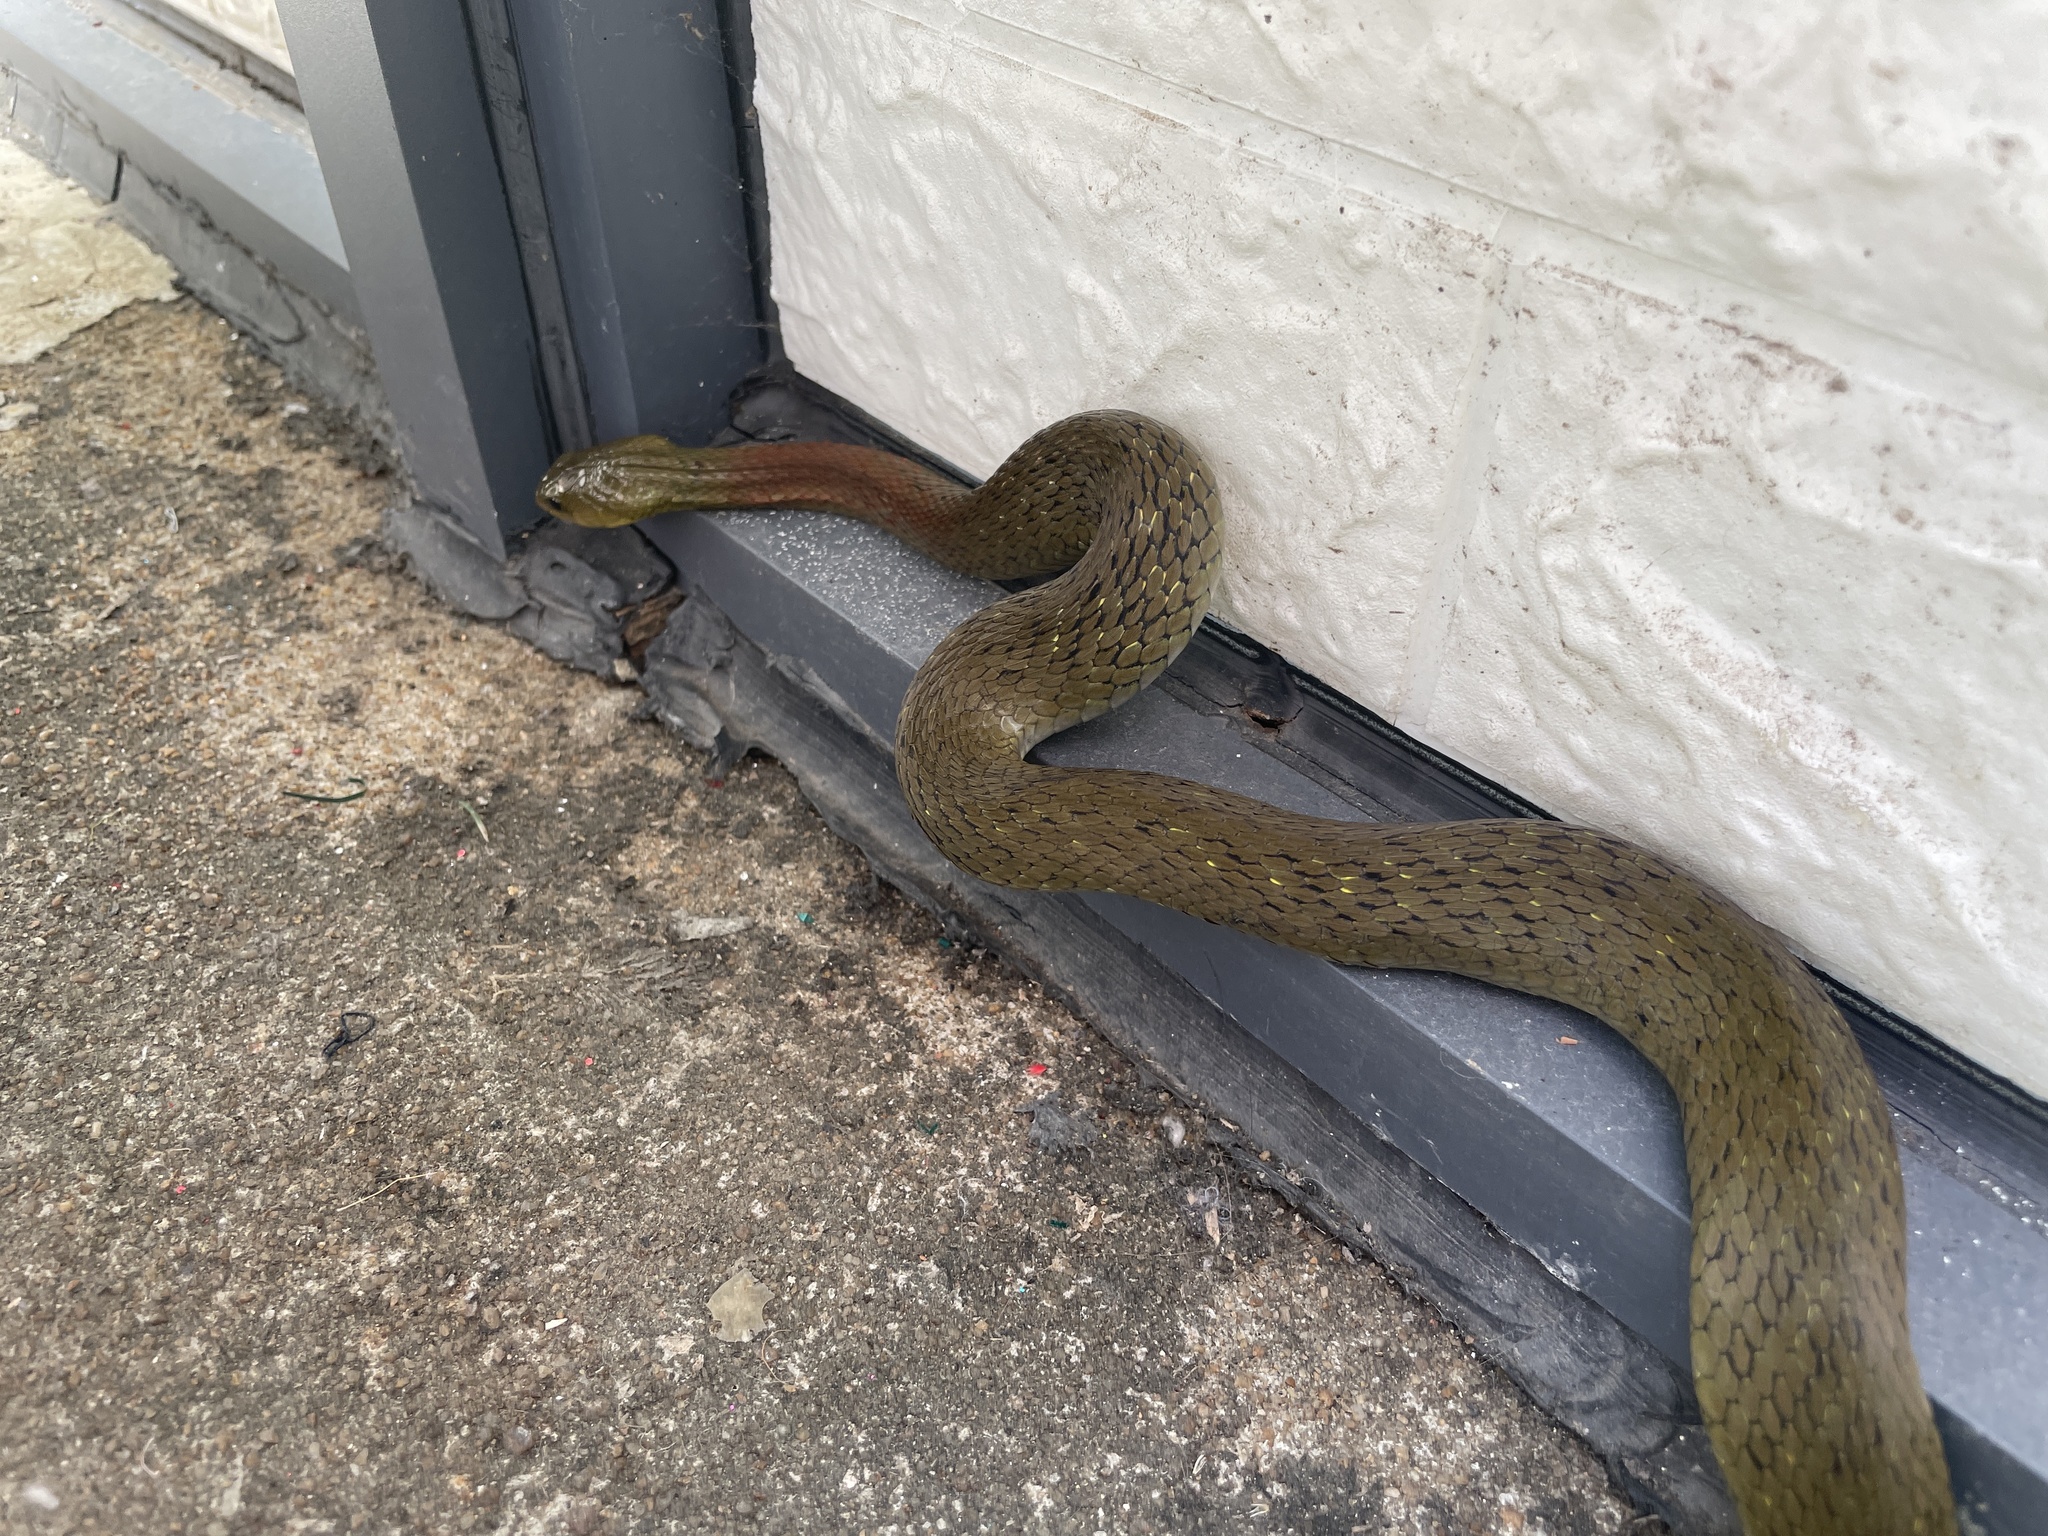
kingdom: Animalia
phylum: Chordata
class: Squamata
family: Colubridae
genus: Rhabdophis
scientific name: Rhabdophis helleri
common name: Heller’s red-necked keelback
